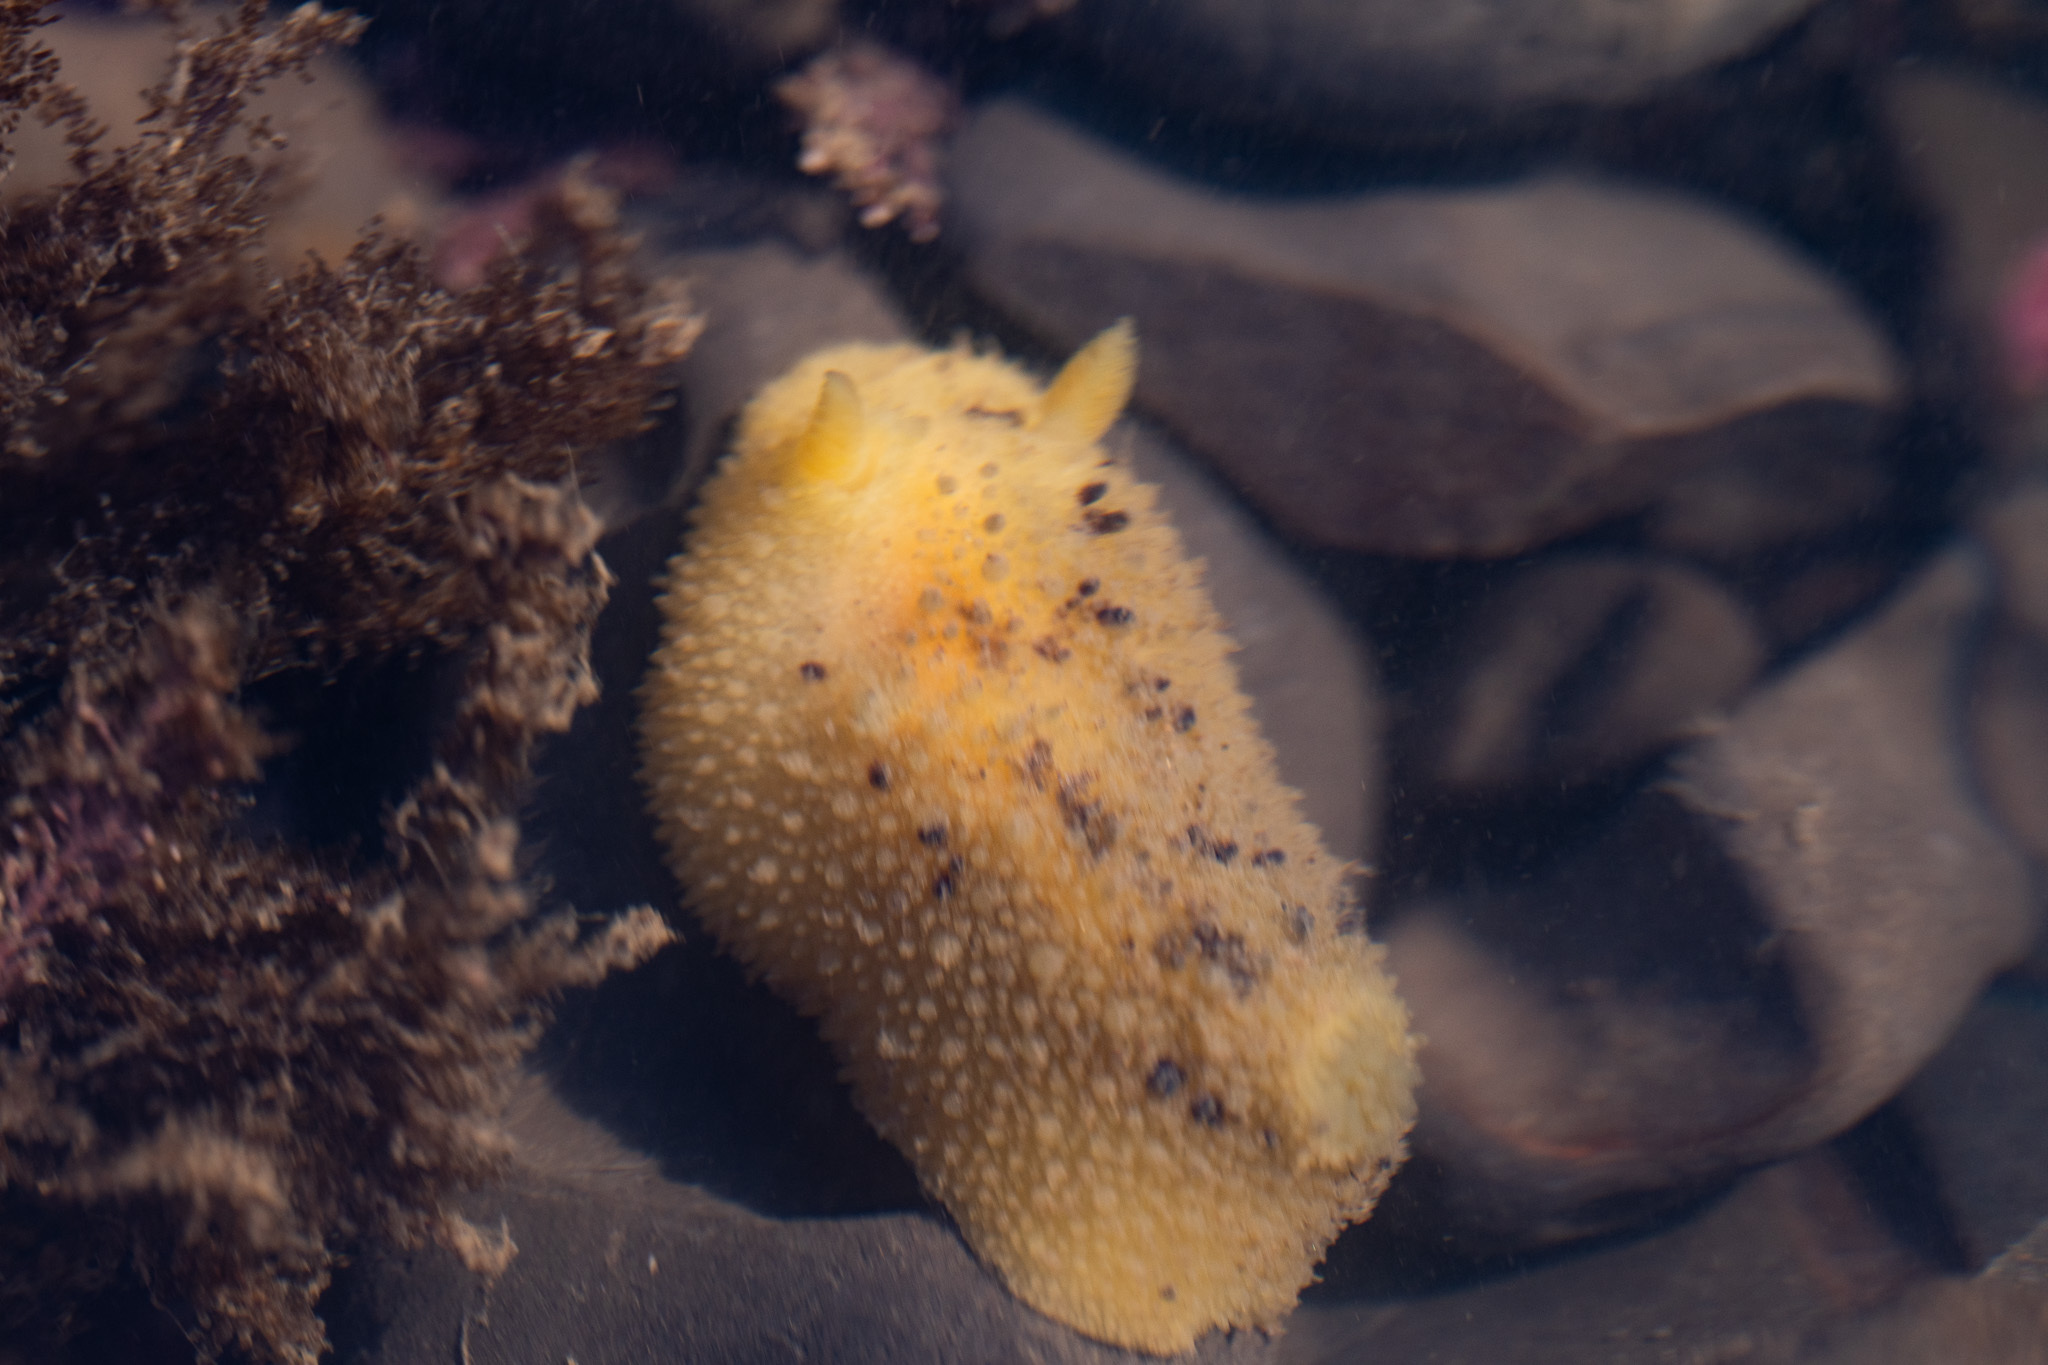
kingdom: Animalia
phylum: Mollusca
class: Gastropoda
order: Nudibranchia
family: Dorididae
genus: Doris
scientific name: Doris montereyensis
